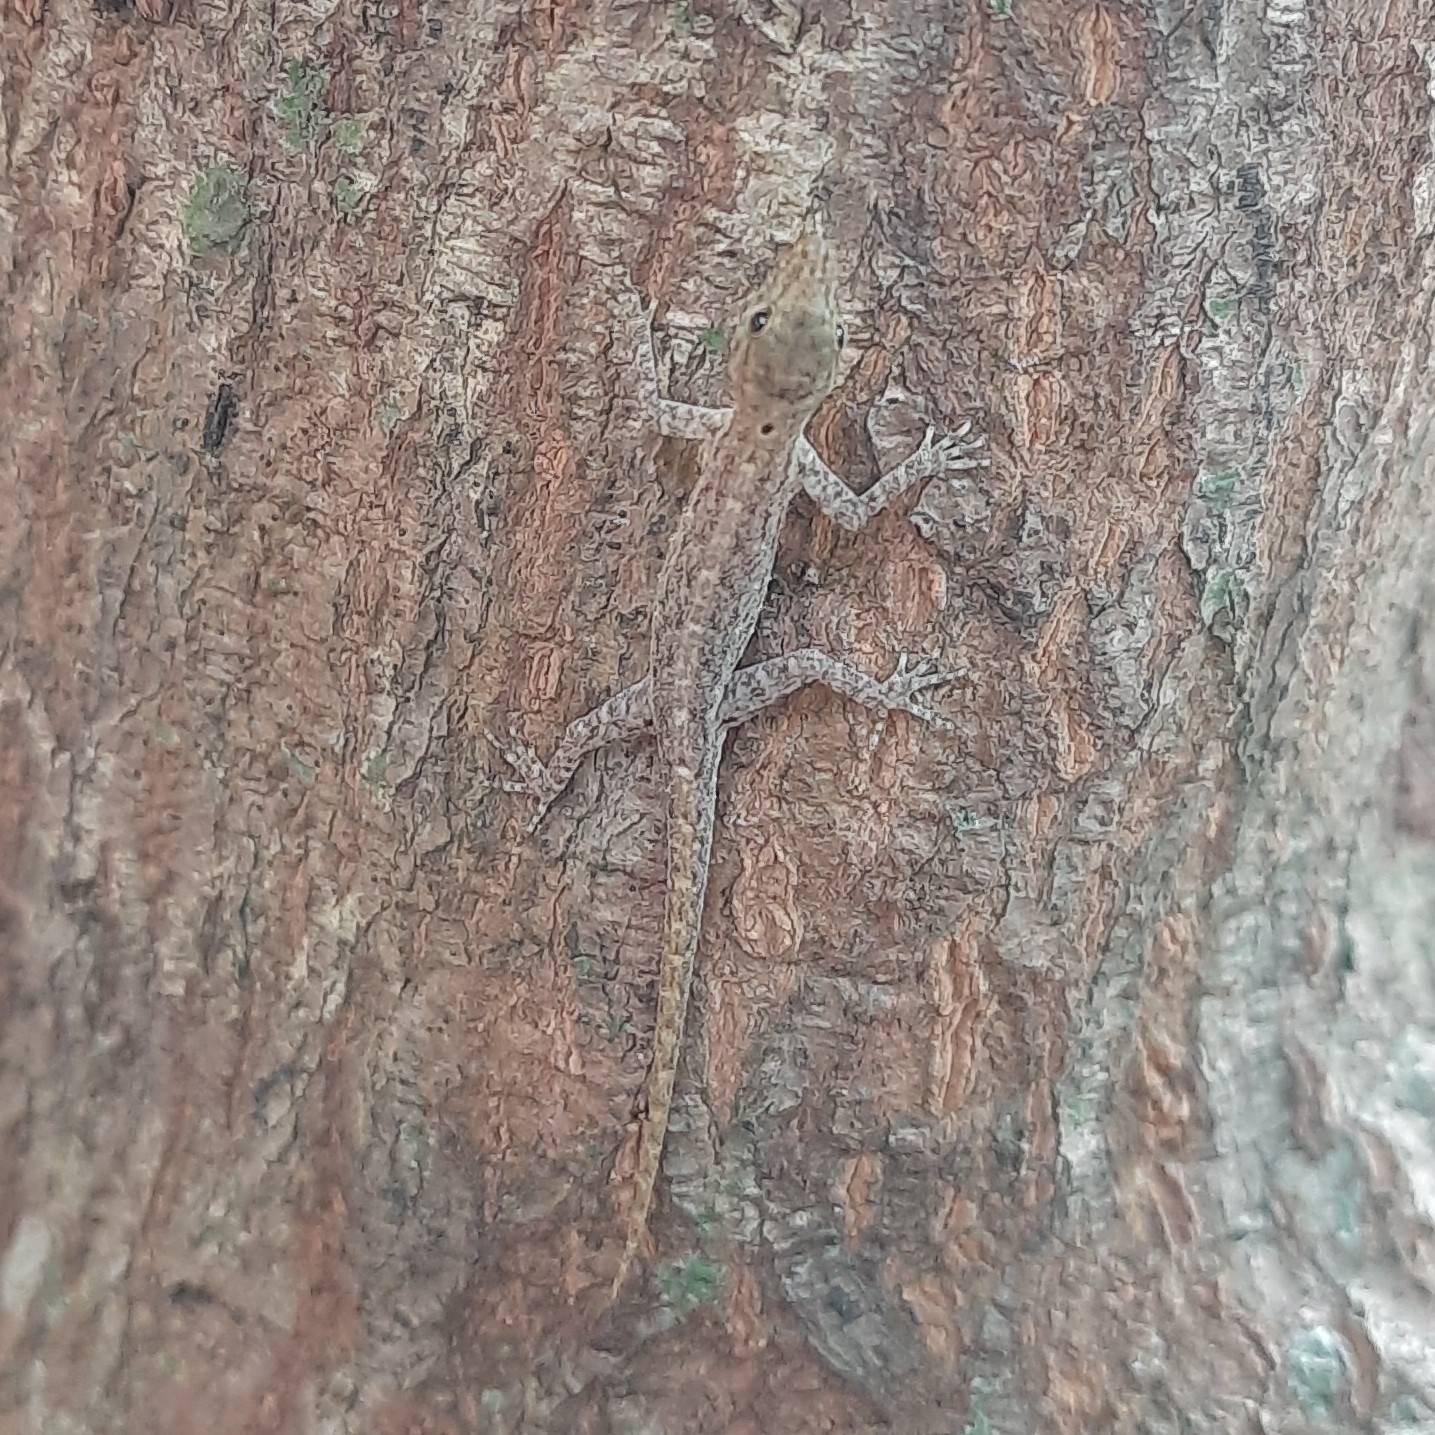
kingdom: Animalia
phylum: Chordata
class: Squamata
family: Gekkonidae
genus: Cnemaspis
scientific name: Cnemaspis littoralis
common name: Coastal day gecko
